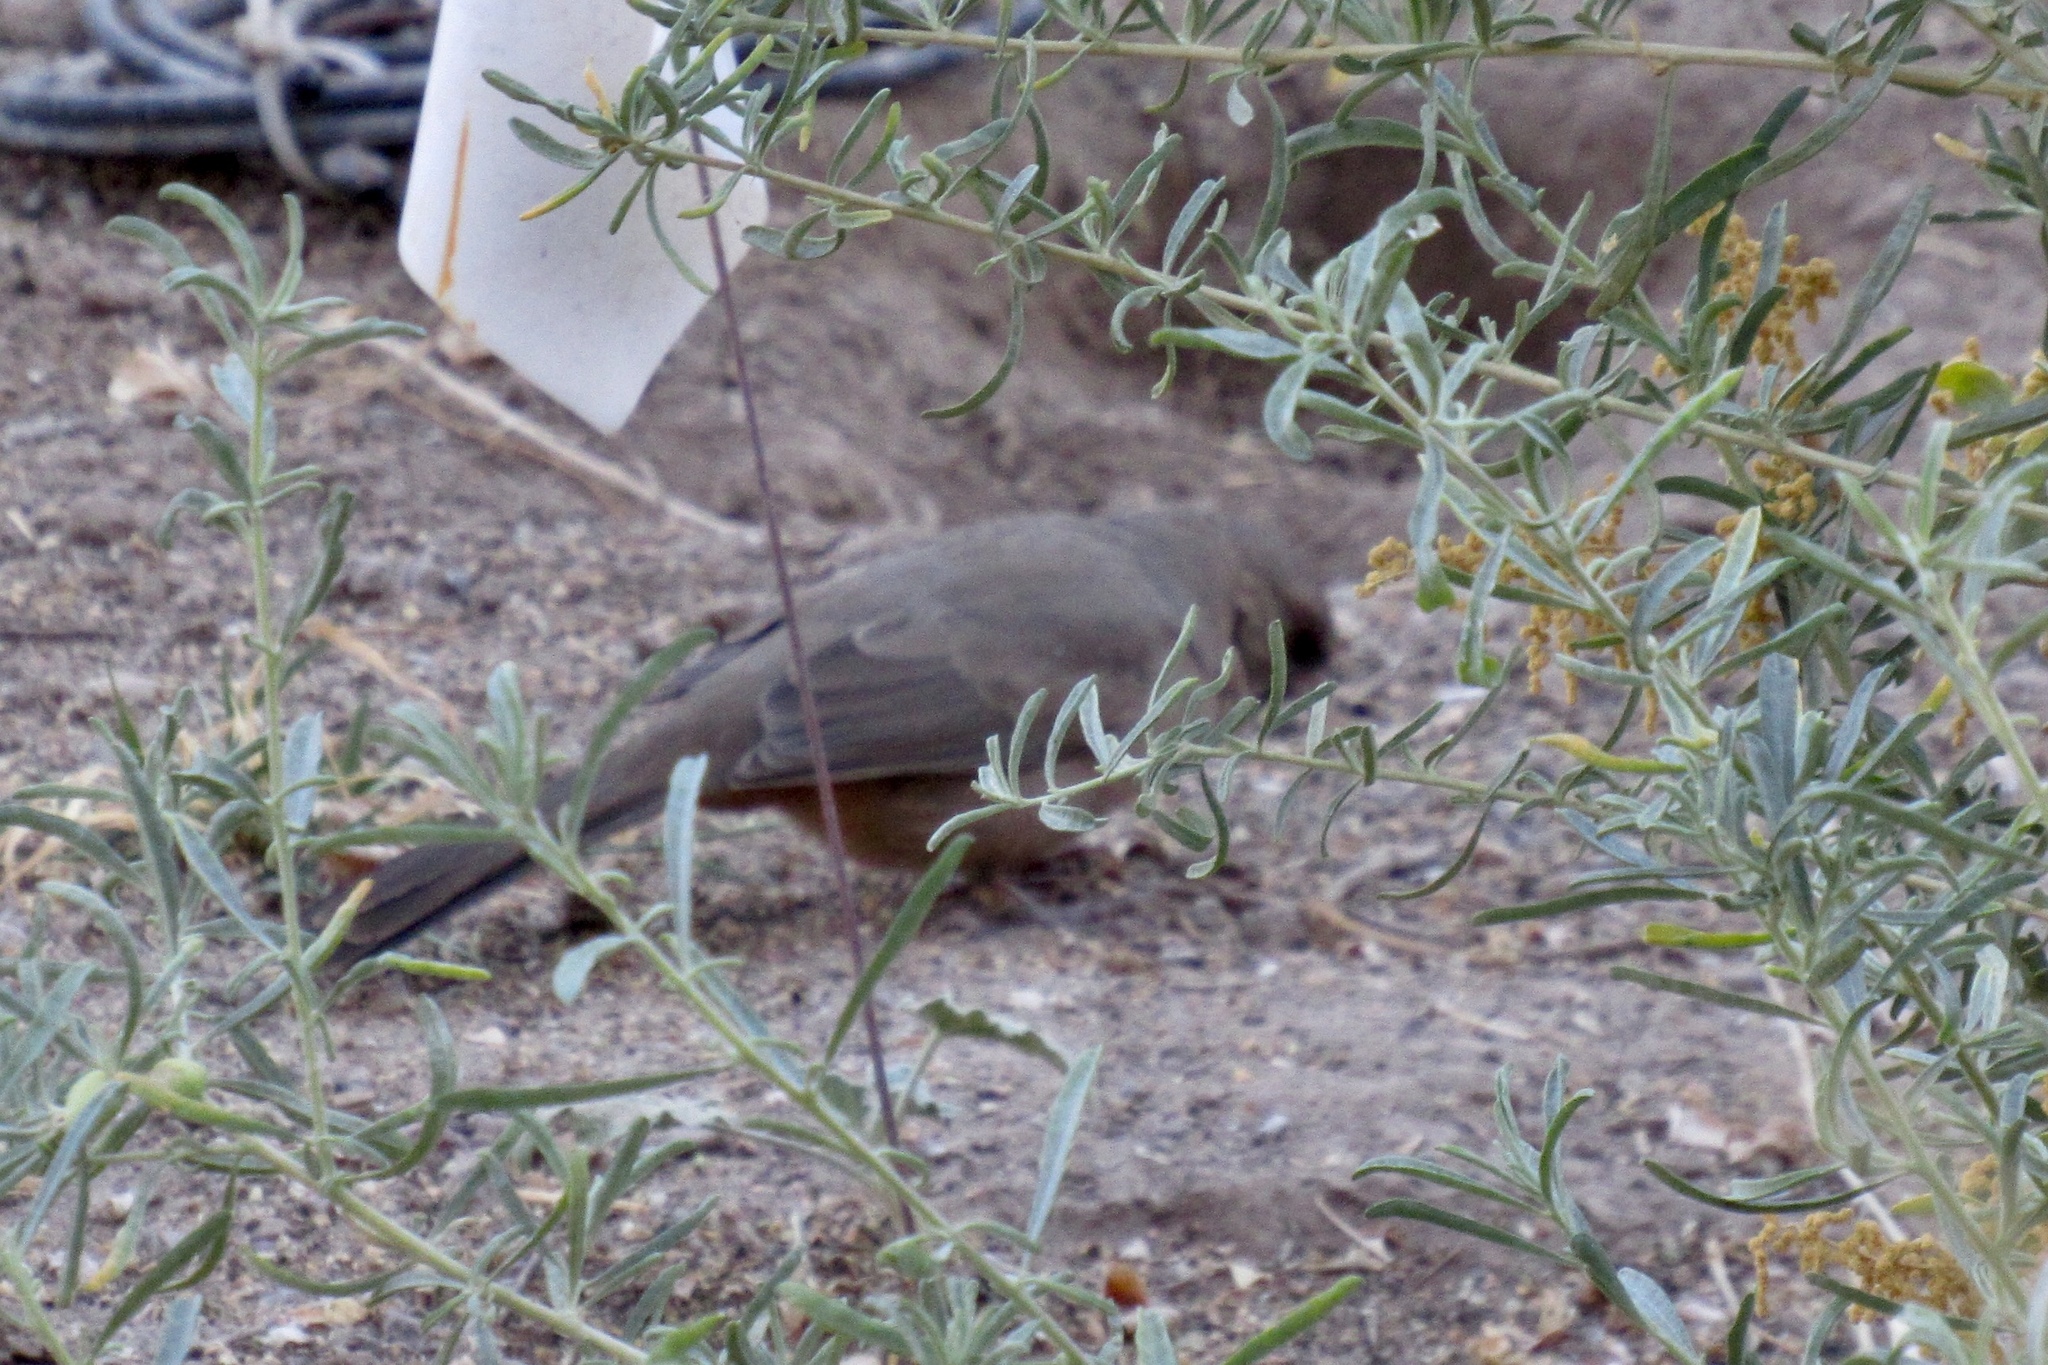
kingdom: Animalia
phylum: Chordata
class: Aves
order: Passeriformes
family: Passerellidae
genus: Melozone
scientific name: Melozone aberti
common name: Abert's towhee
